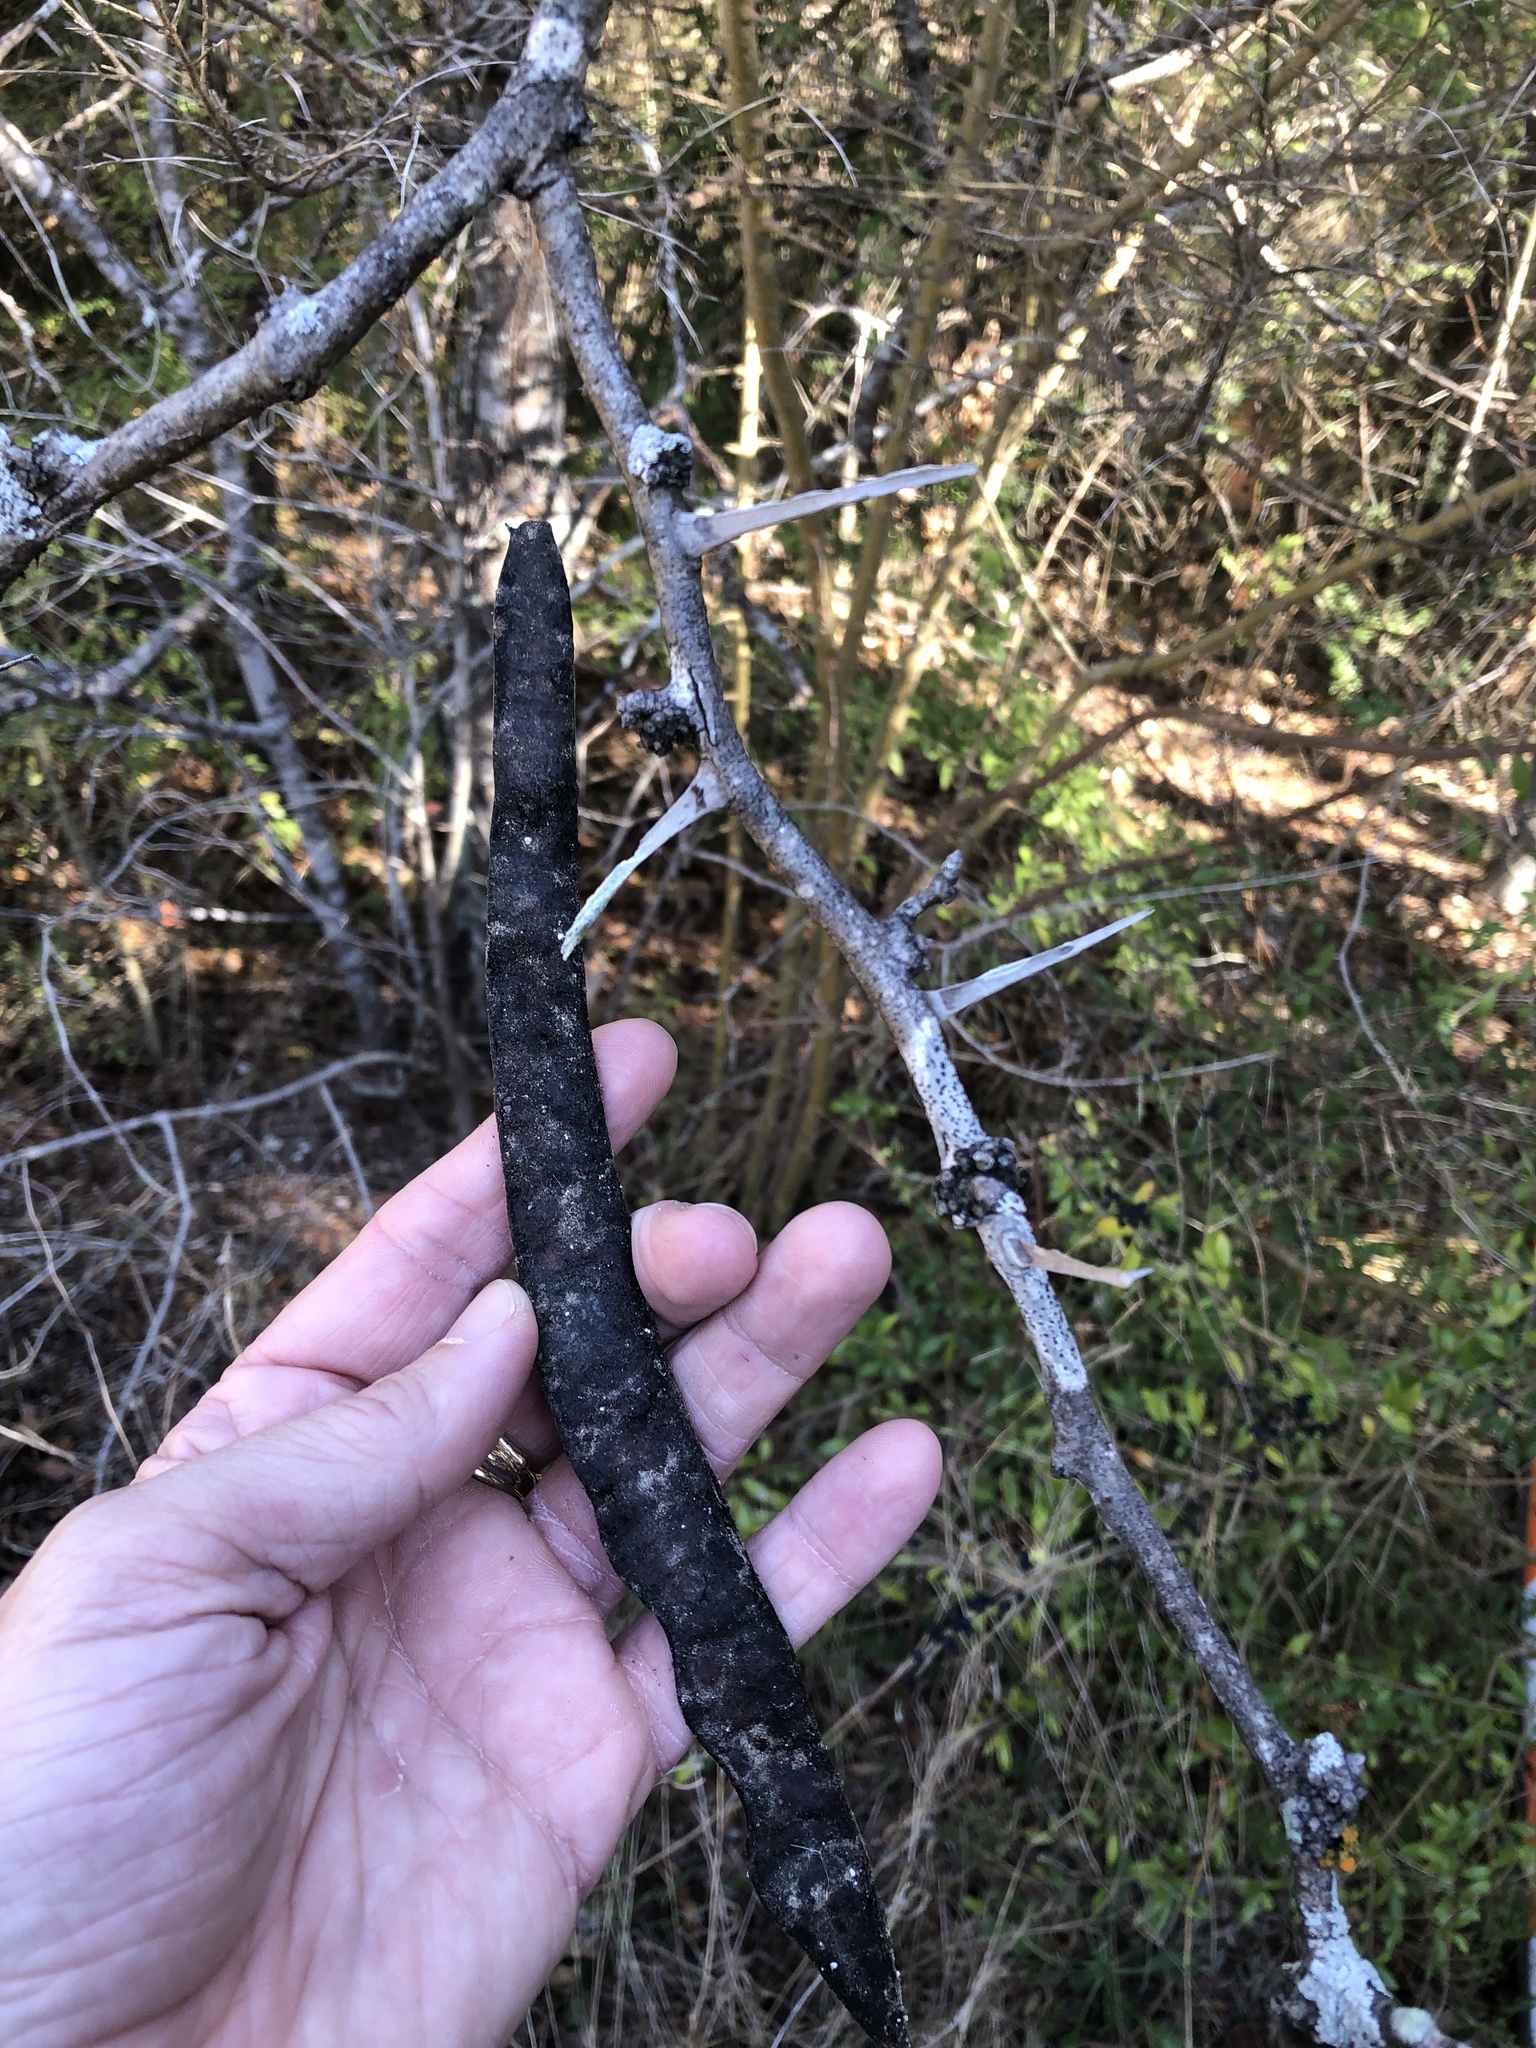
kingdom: Plantae
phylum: Tracheophyta
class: Magnoliopsida
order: Fabales
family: Fabaceae
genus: Gleditsia
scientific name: Gleditsia triacanthos
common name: Common honeylocust
